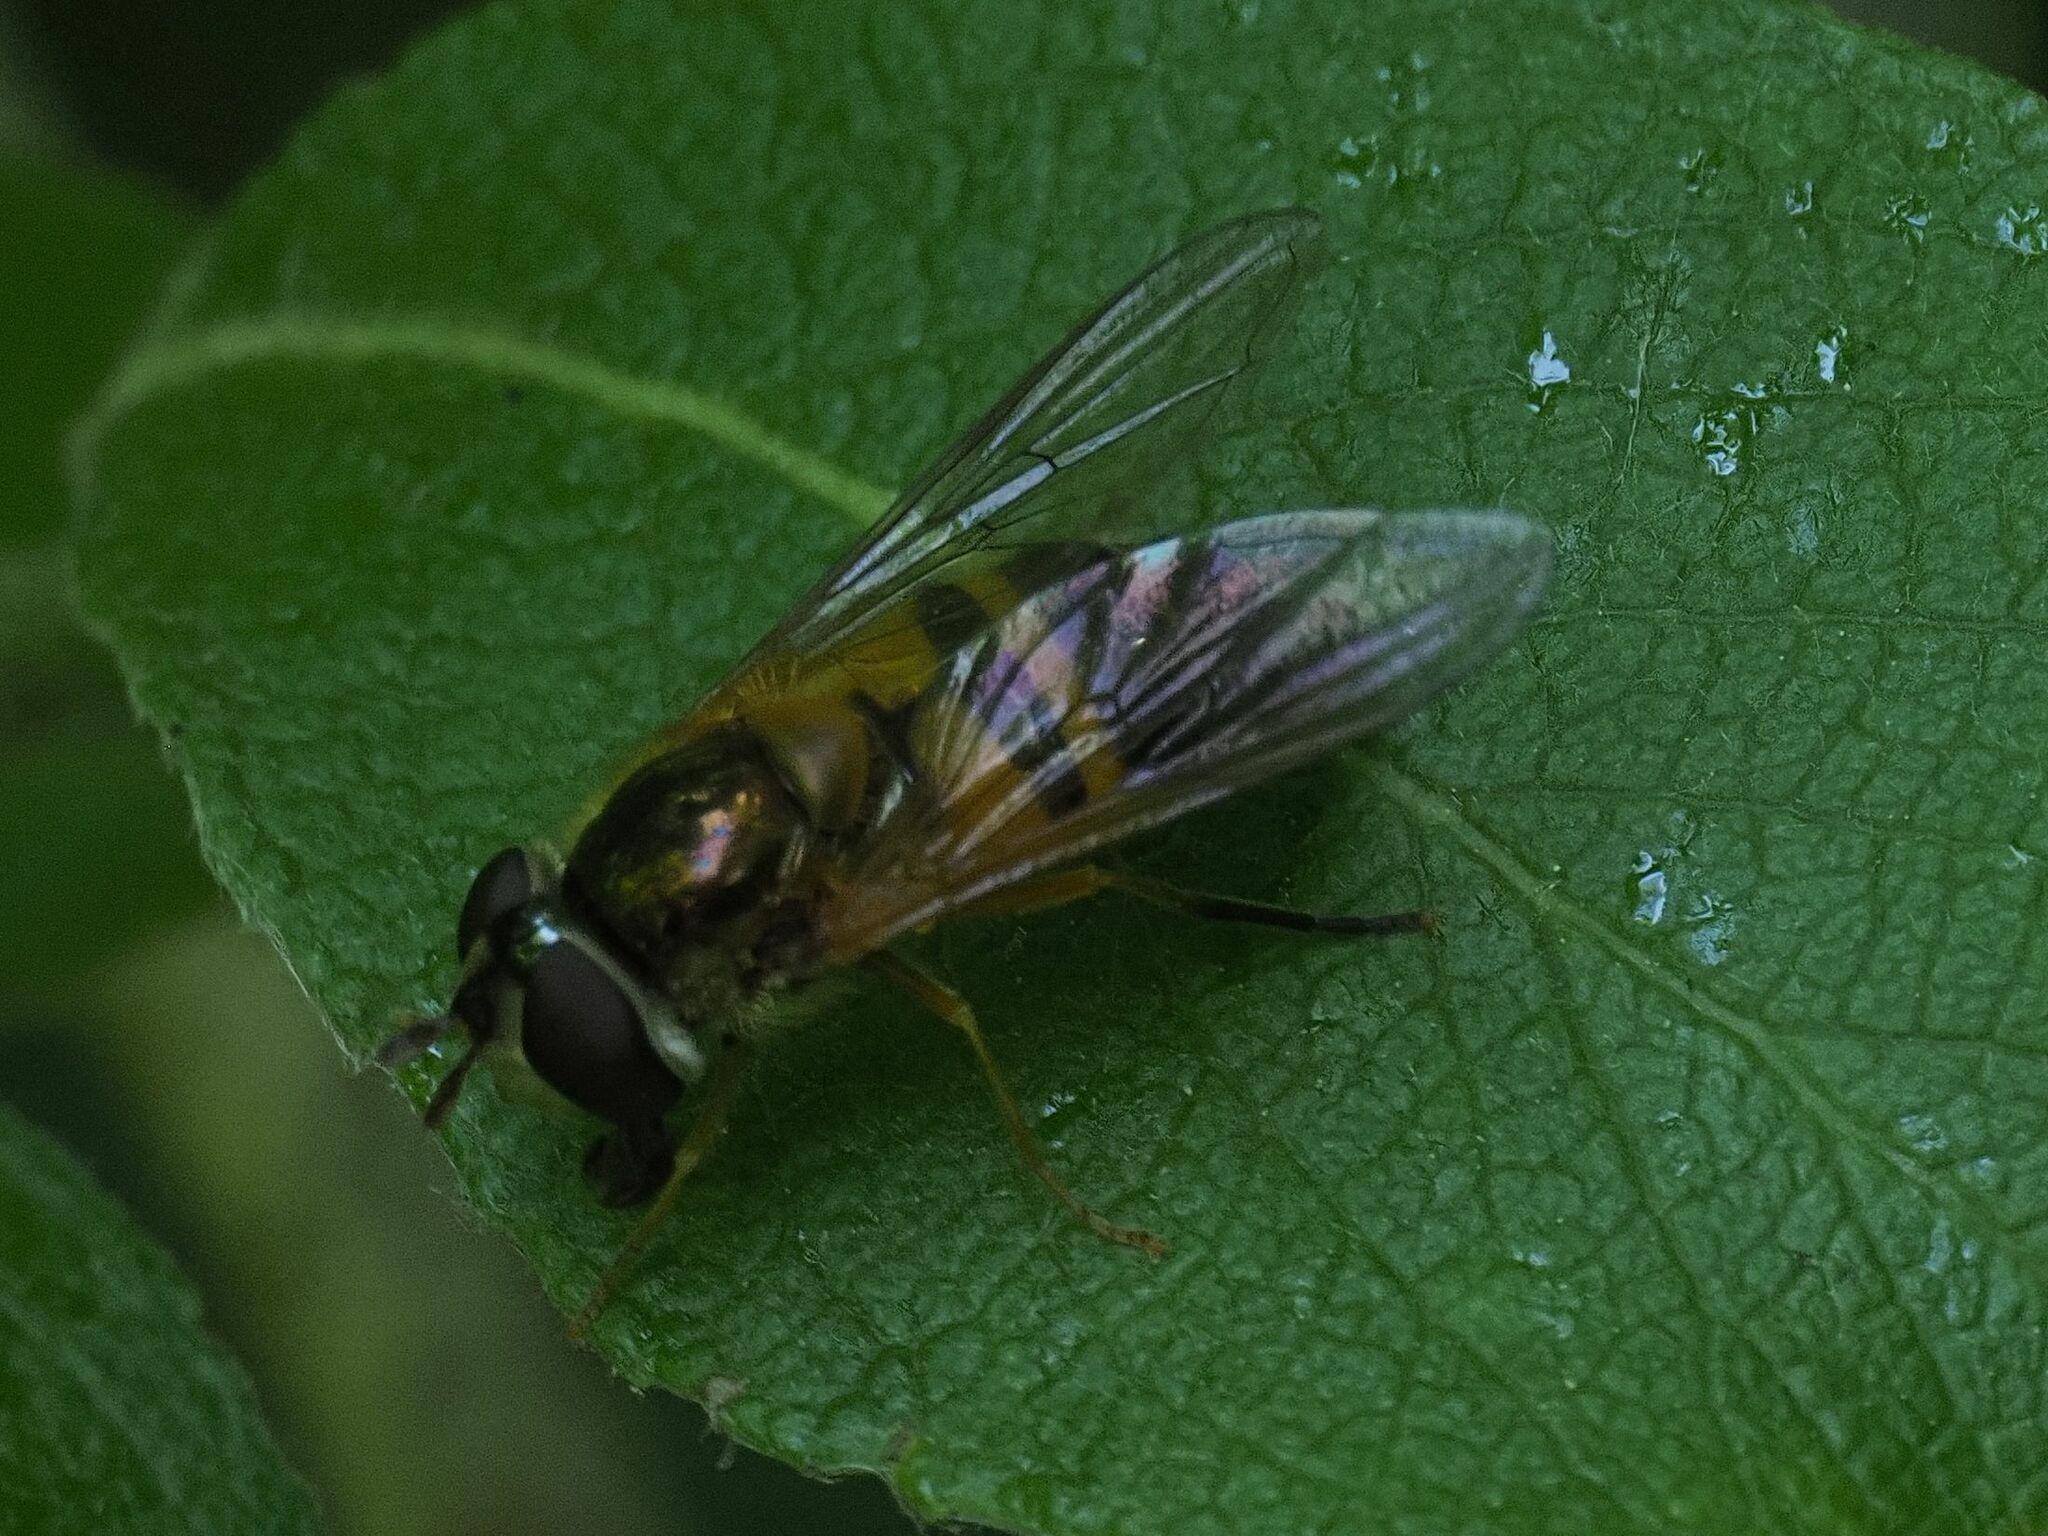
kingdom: Animalia
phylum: Arthropoda
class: Insecta
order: Diptera
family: Syrphidae
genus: Epistrophe
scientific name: Epistrophe eligans
